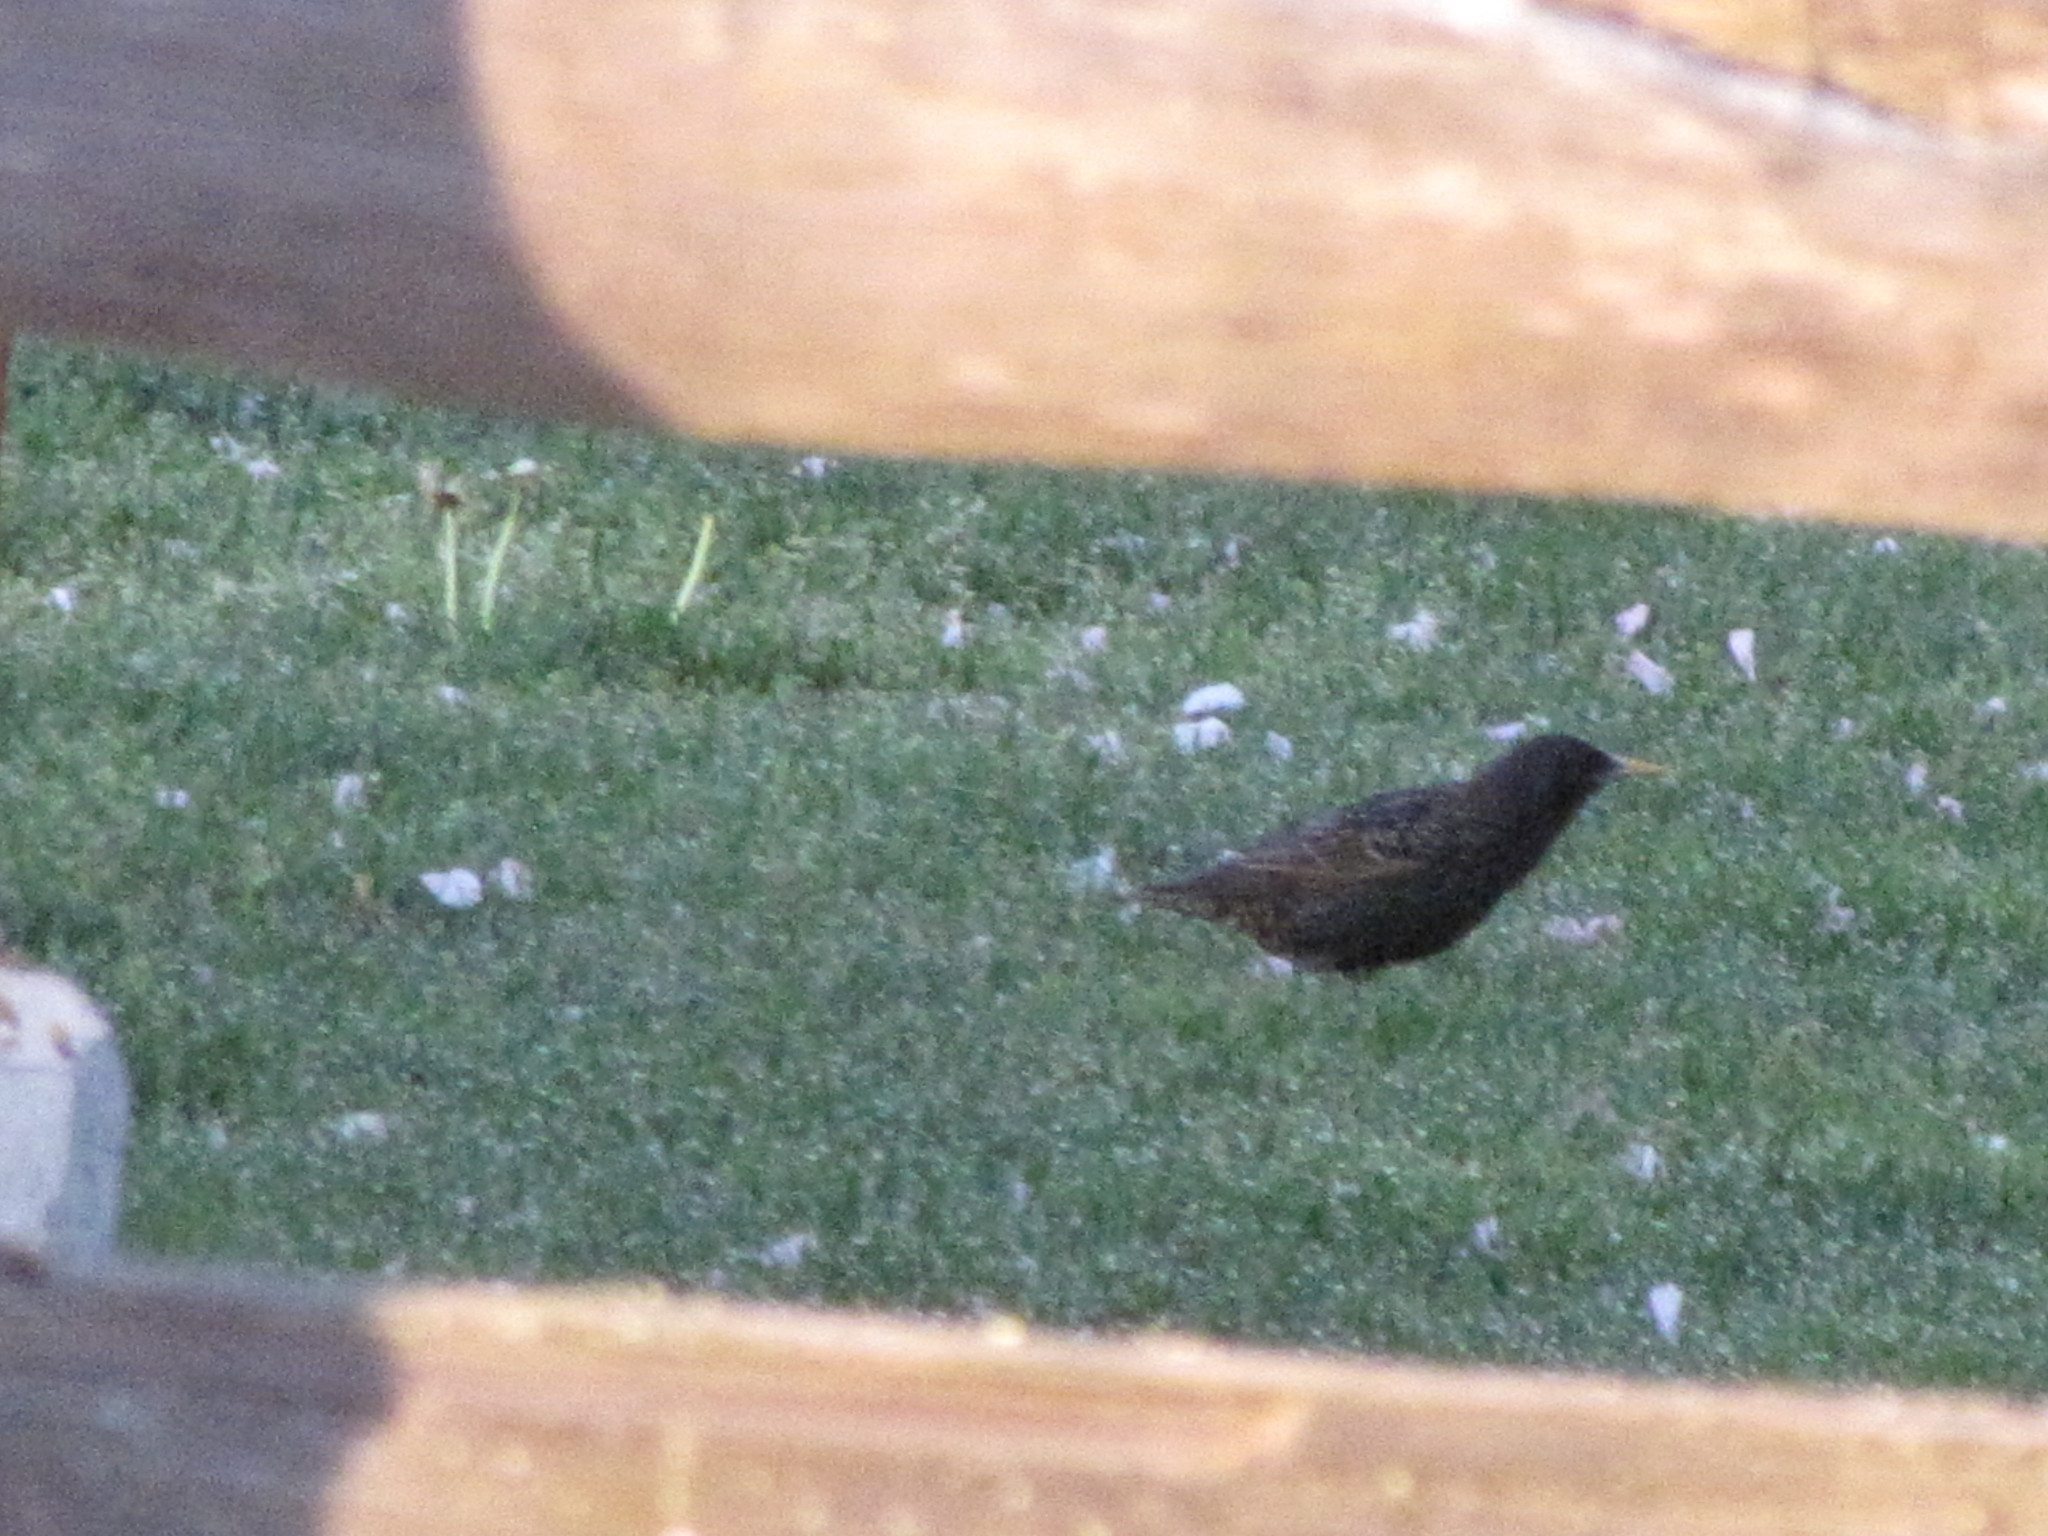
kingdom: Animalia
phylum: Chordata
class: Aves
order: Passeriformes
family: Sturnidae
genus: Sturnus
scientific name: Sturnus vulgaris
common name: Common starling
